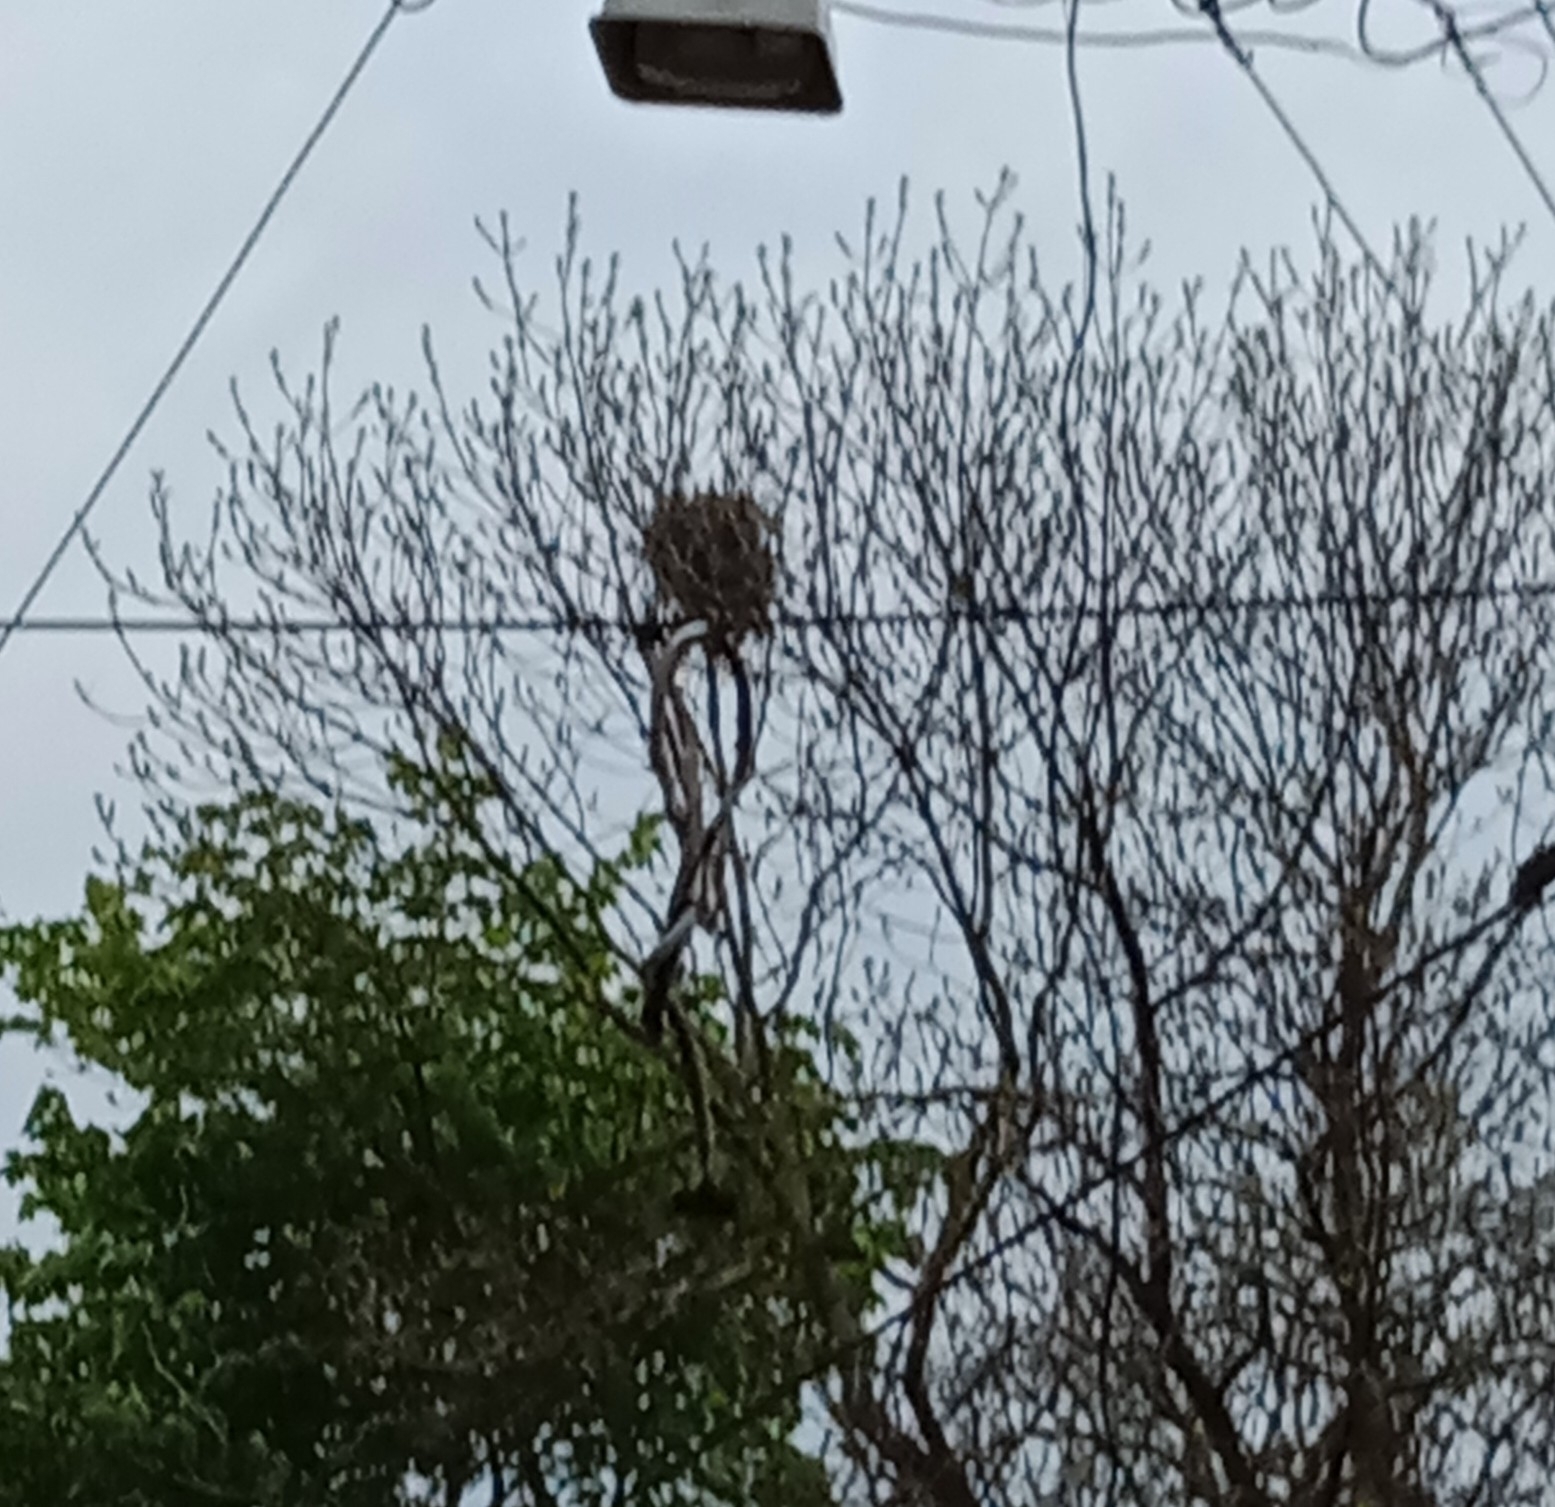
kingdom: Animalia
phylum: Chordata
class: Aves
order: Passeriformes
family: Corvidae
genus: Pica
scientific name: Pica pica
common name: Eurasian magpie
